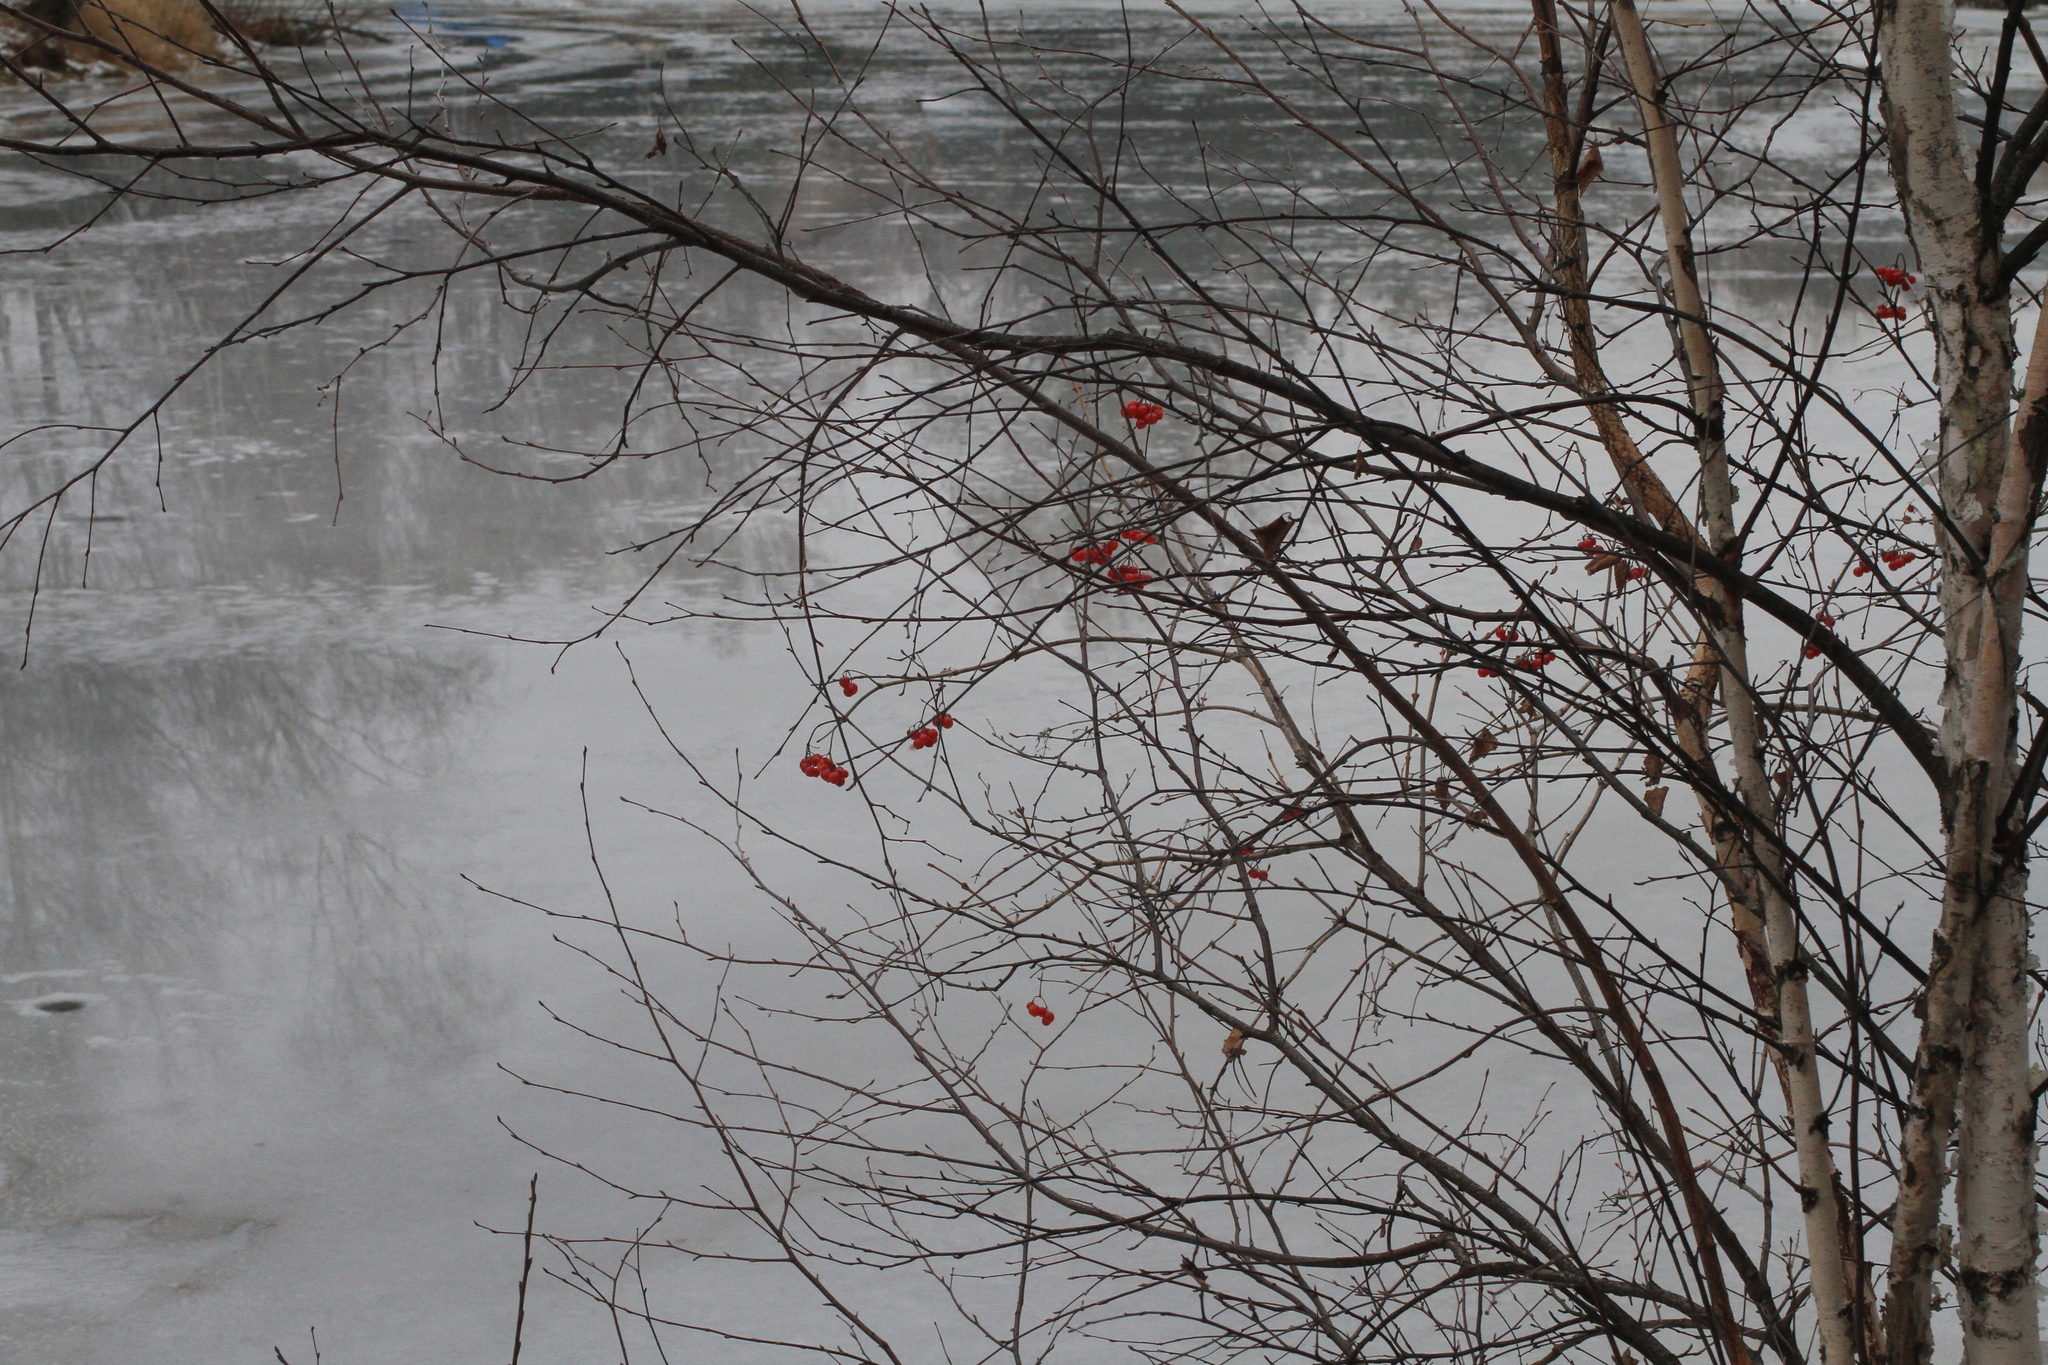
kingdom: Plantae
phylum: Tracheophyta
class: Magnoliopsida
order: Dipsacales
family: Viburnaceae
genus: Viburnum
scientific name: Viburnum opulus
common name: Guelder-rose
